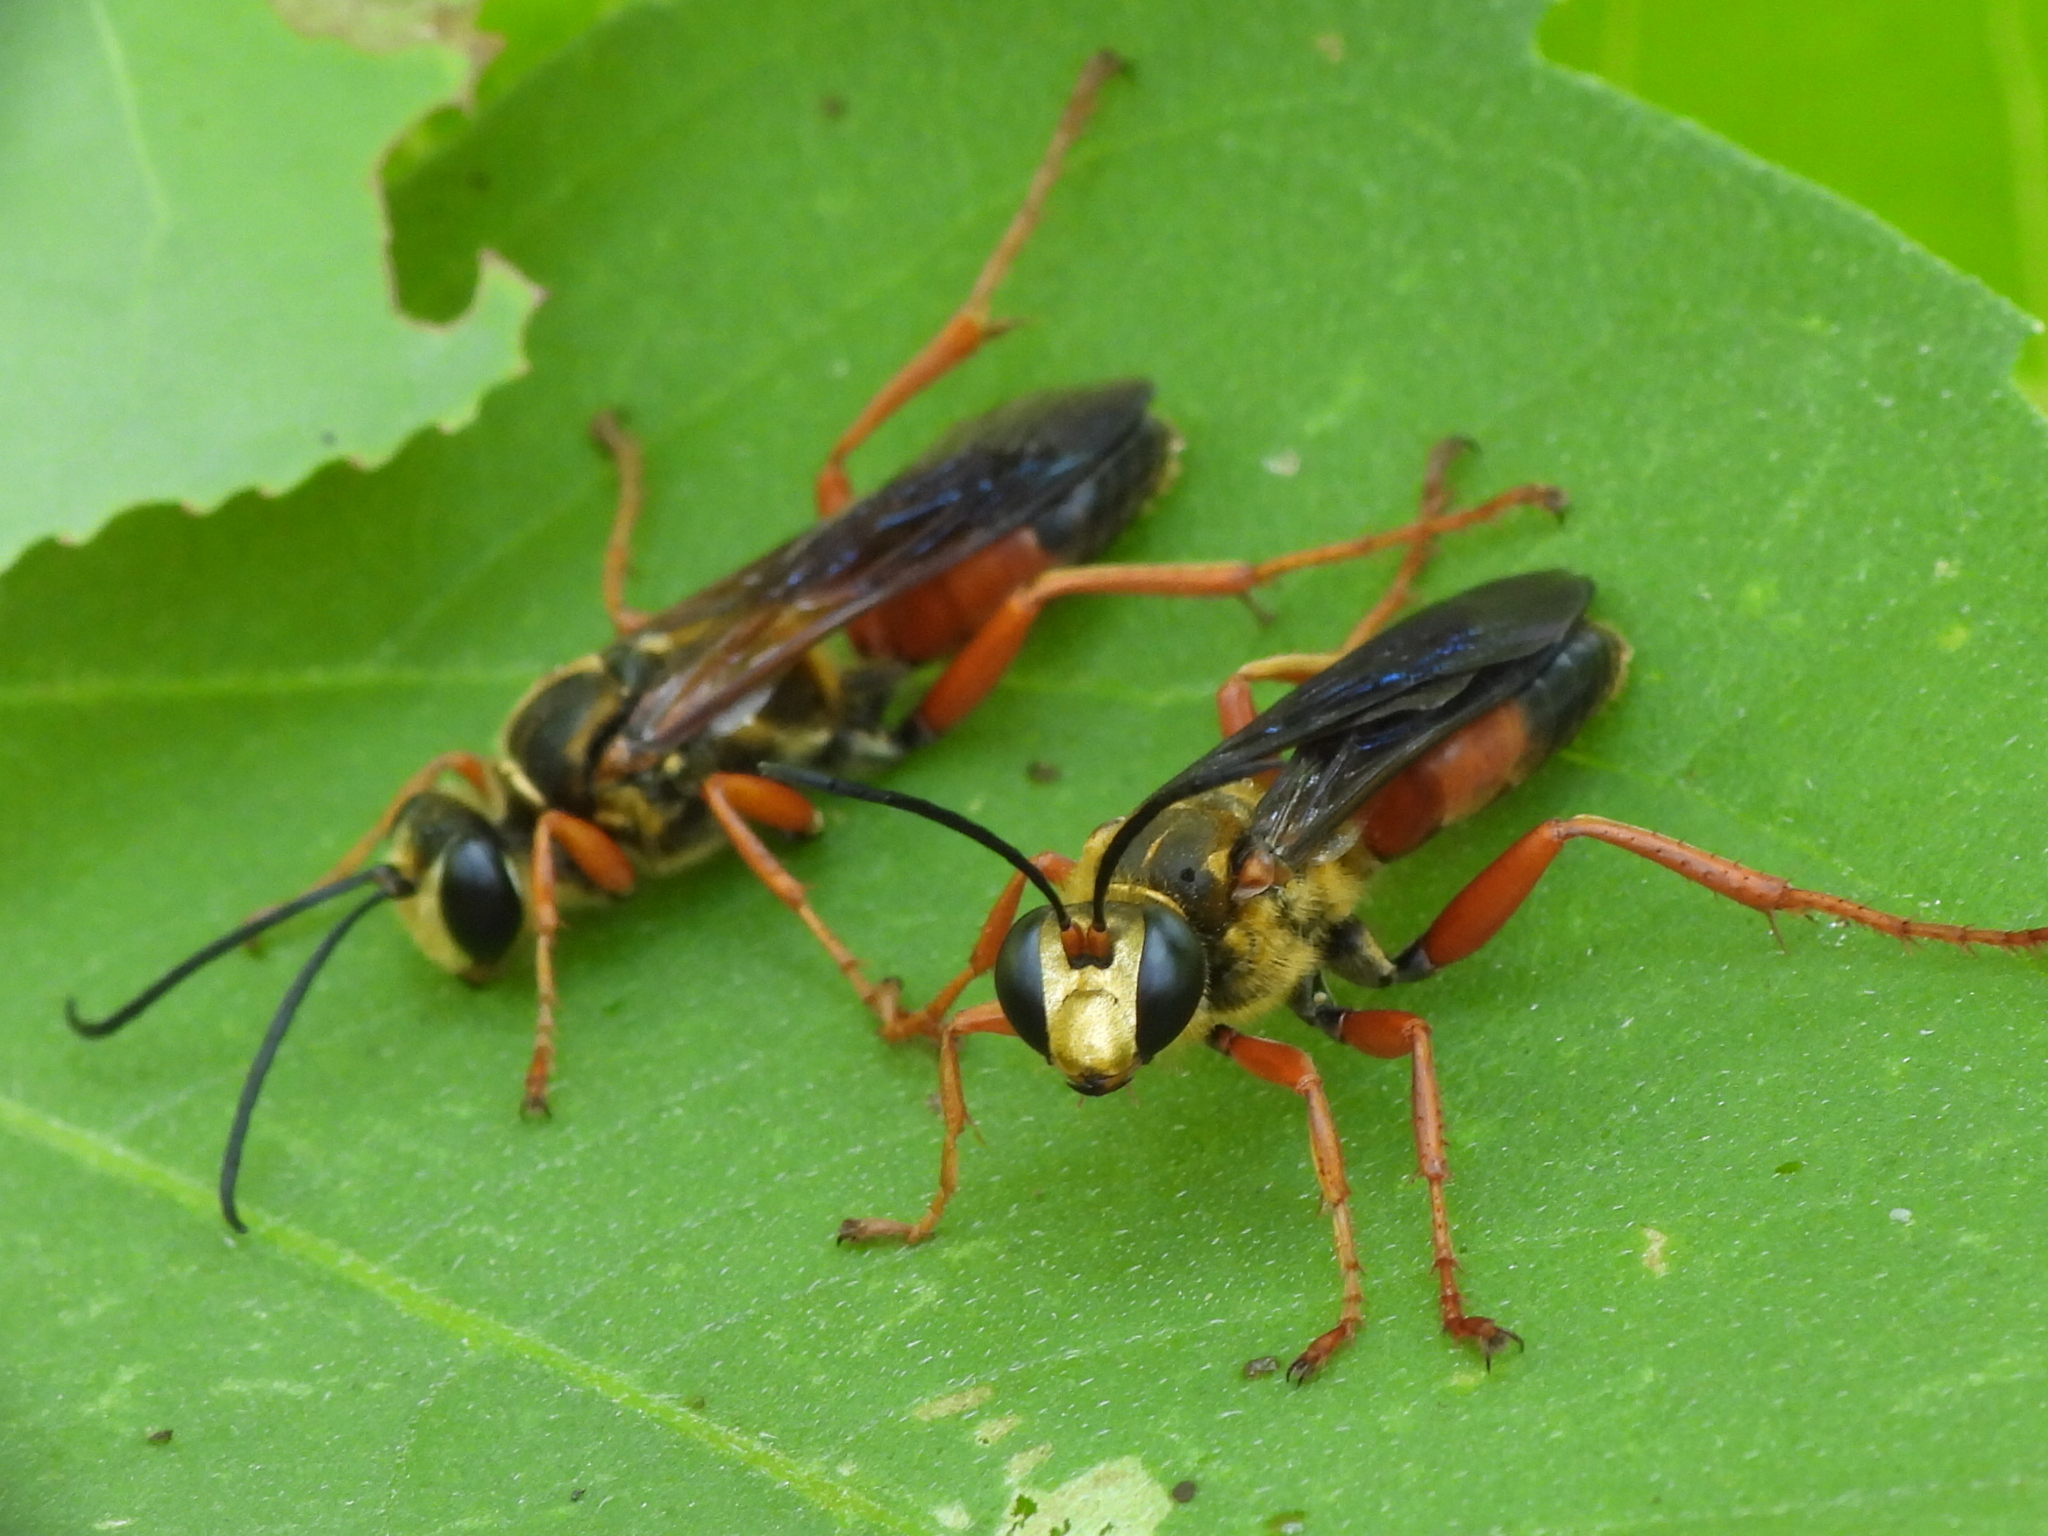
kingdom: Animalia
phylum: Arthropoda
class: Insecta
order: Hymenoptera
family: Sphecidae
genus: Sphex
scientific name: Sphex ichneumoneus
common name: Great golden digger wasp
